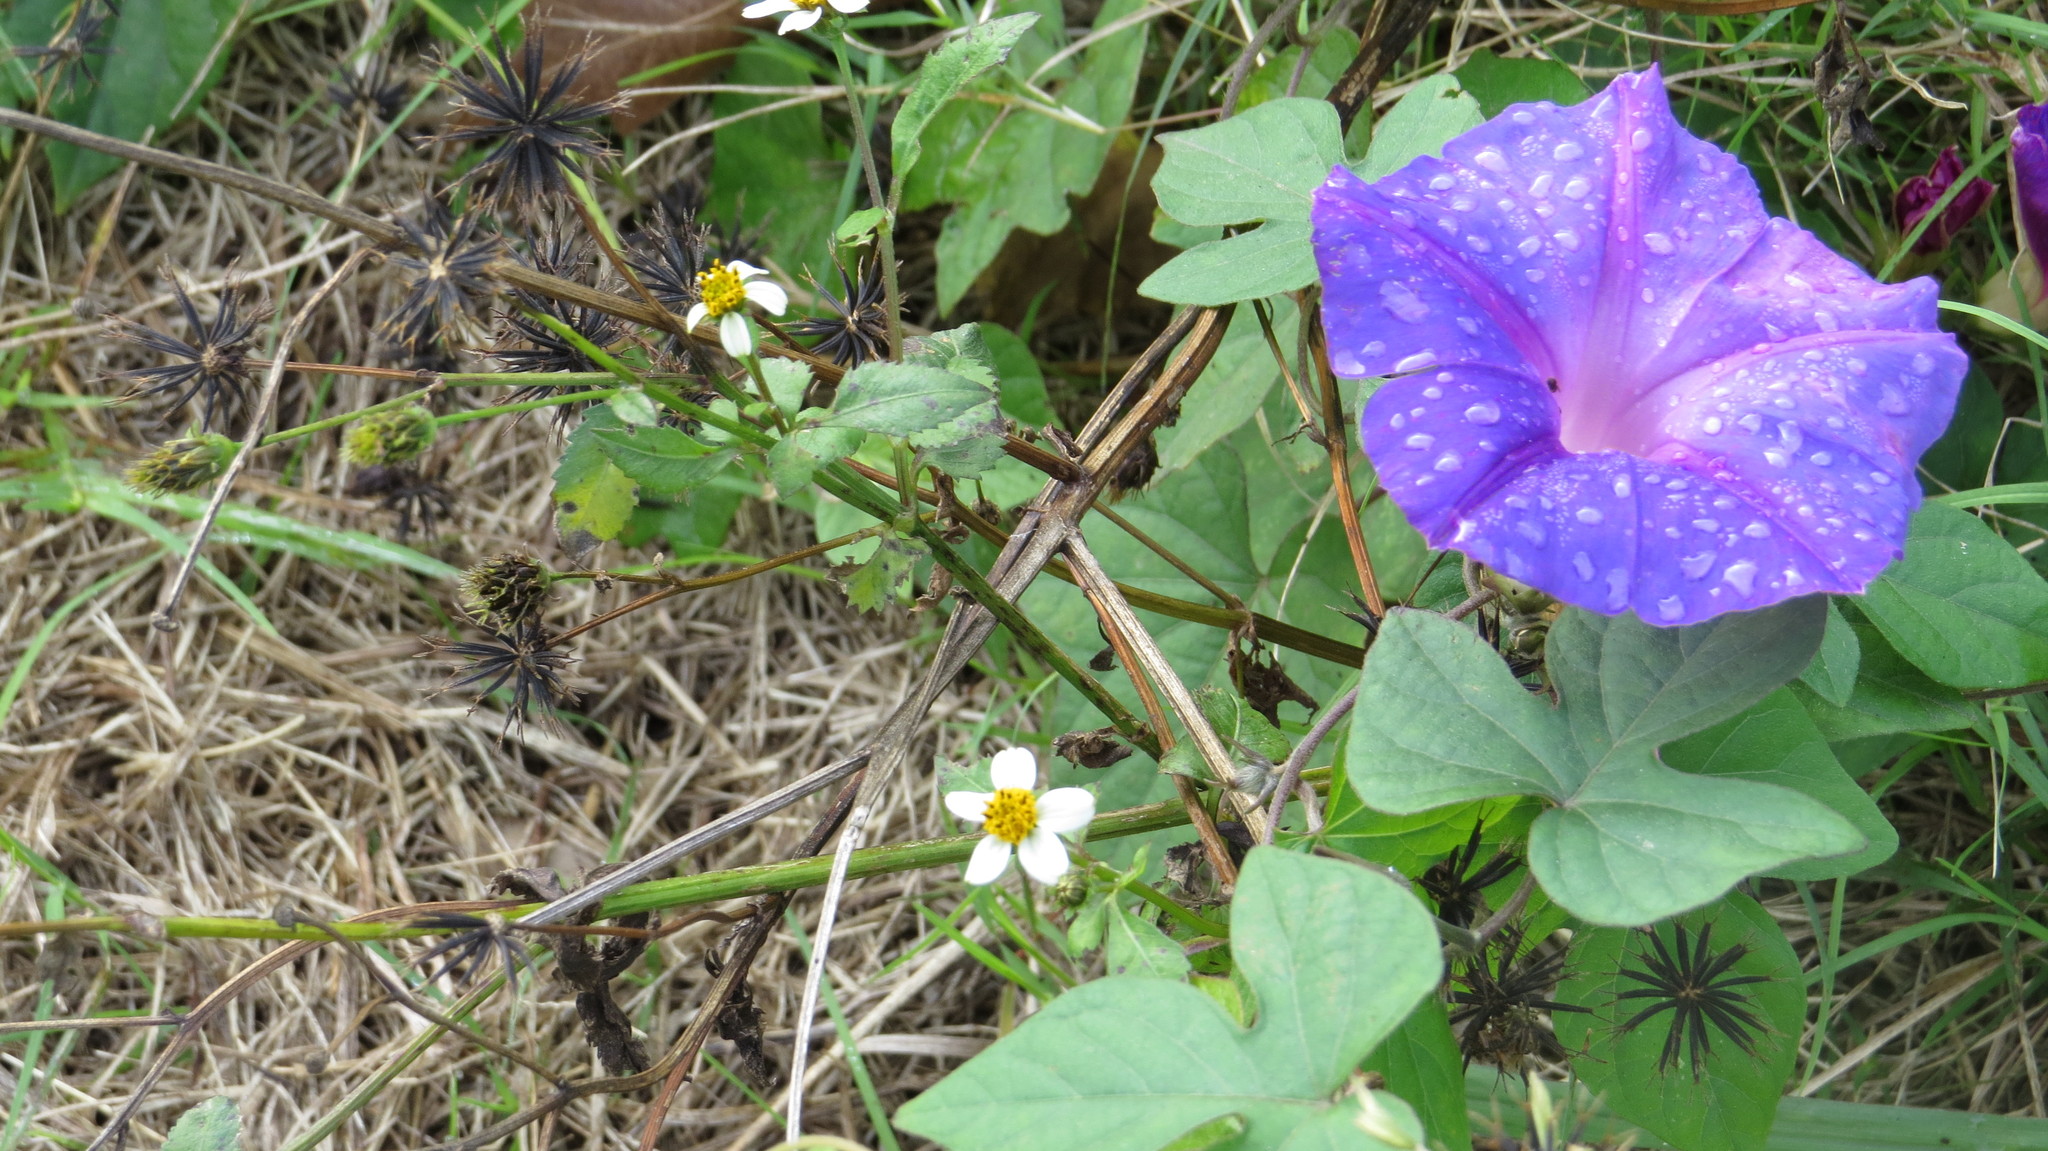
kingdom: Plantae
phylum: Tracheophyta
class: Magnoliopsida
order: Solanales
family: Convolvulaceae
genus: Ipomoea
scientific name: Ipomoea indica
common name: Blue dawnflower
